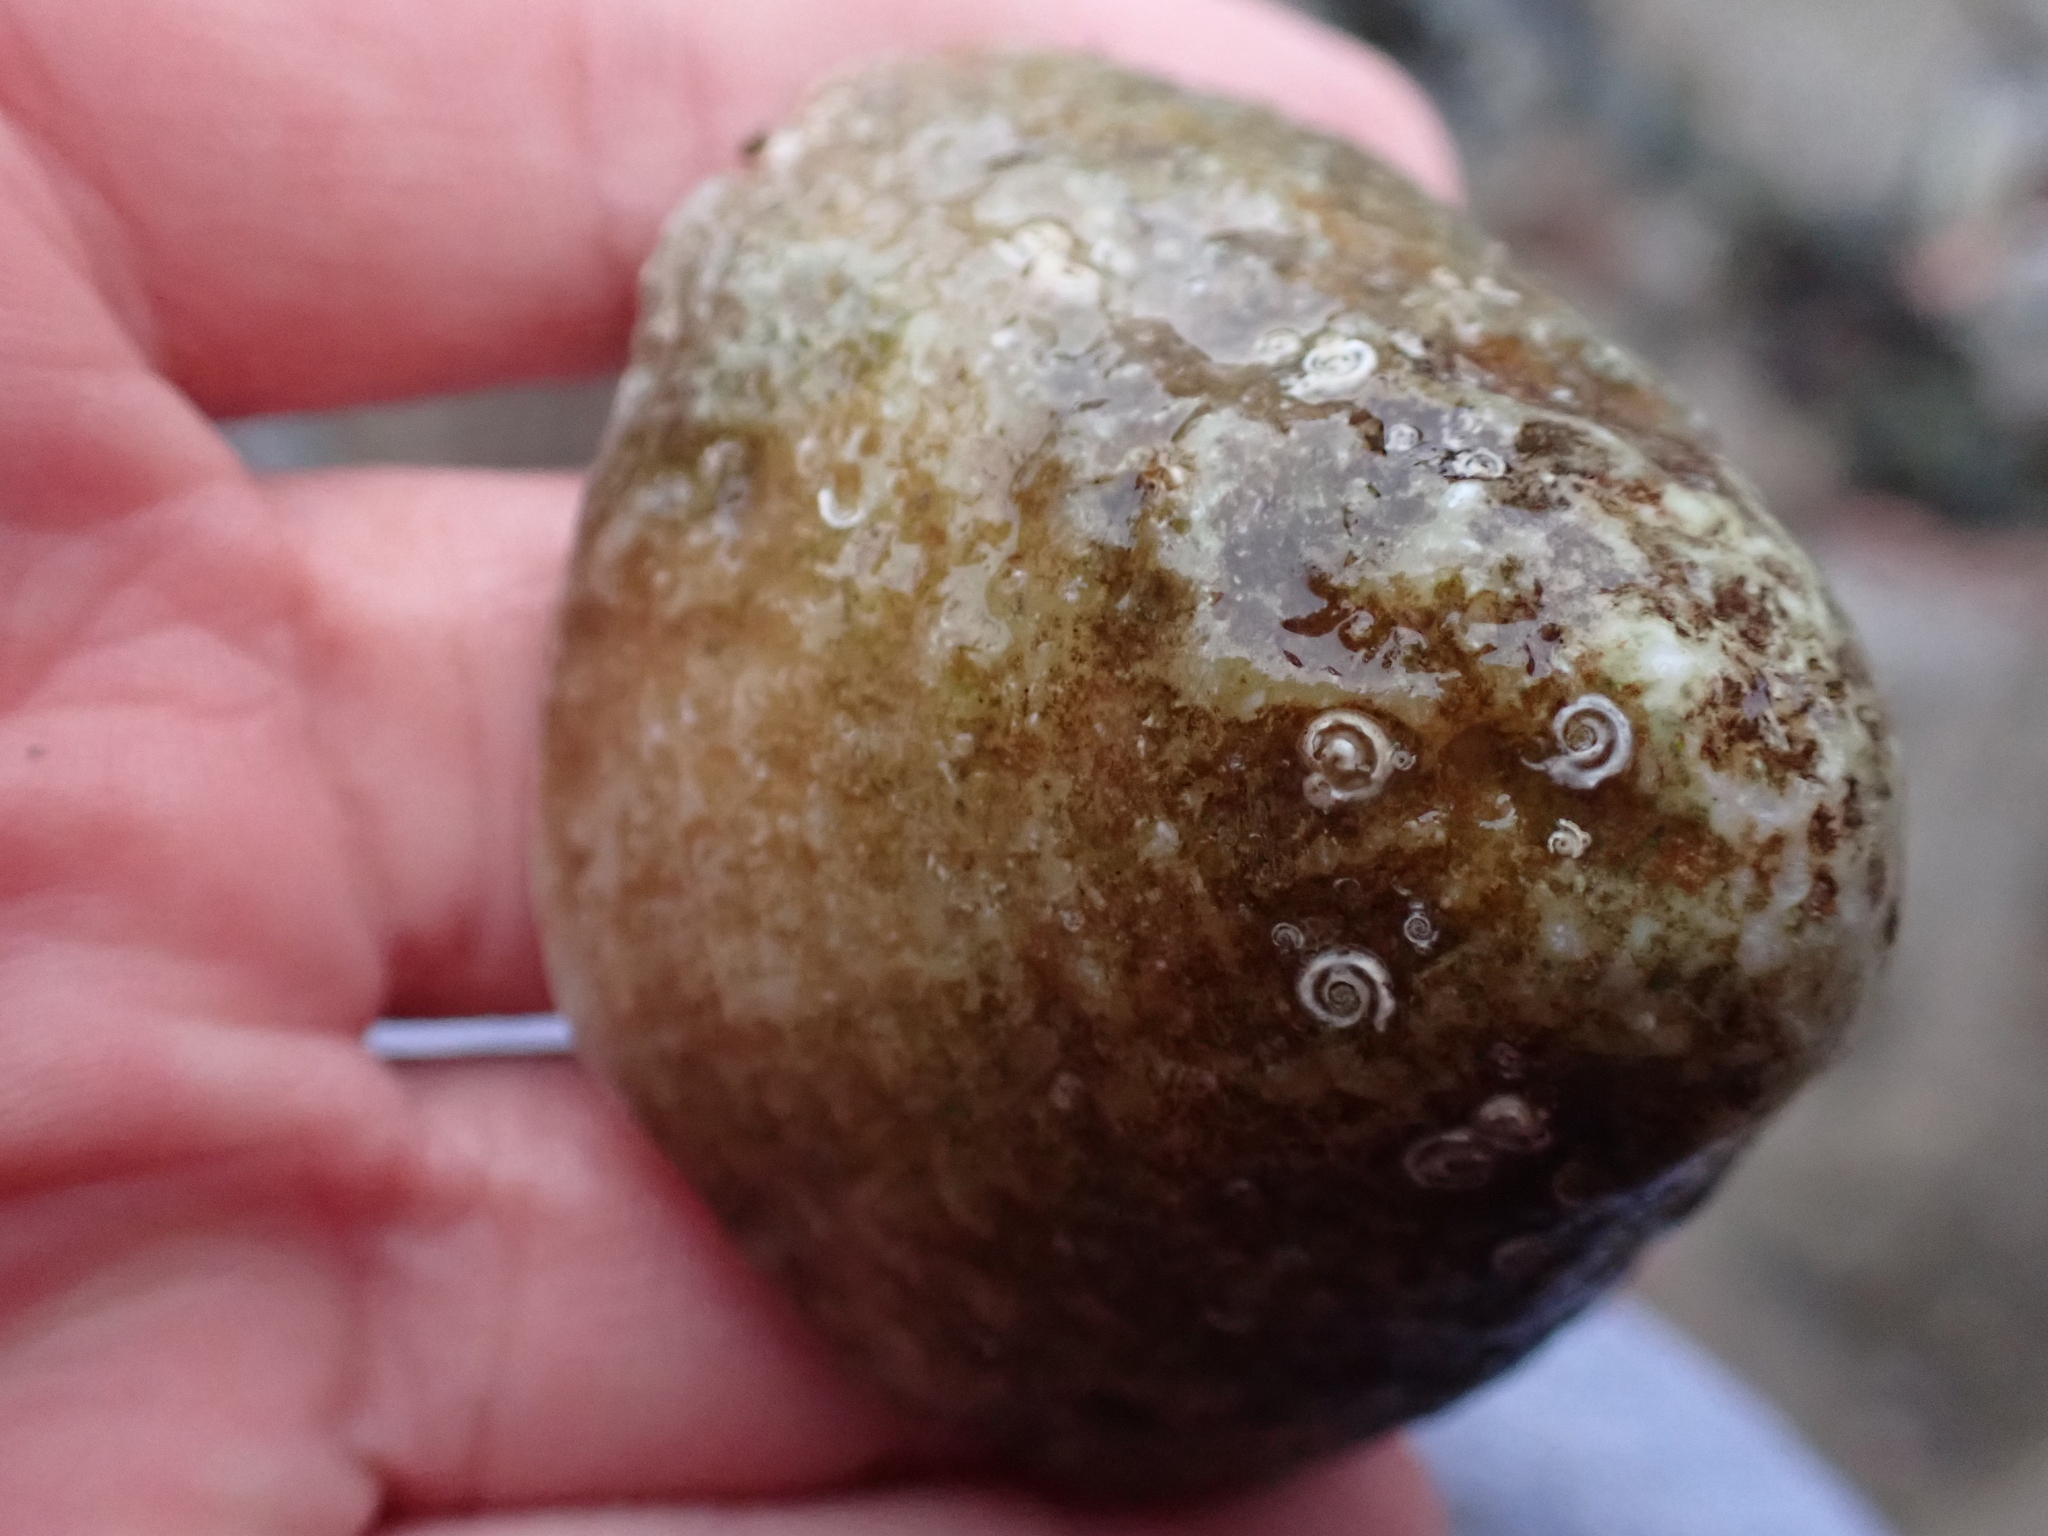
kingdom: Animalia
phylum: Mollusca
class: Gastropoda
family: Patellidae
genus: Patella
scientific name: Patella vulgata
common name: Common limpet
